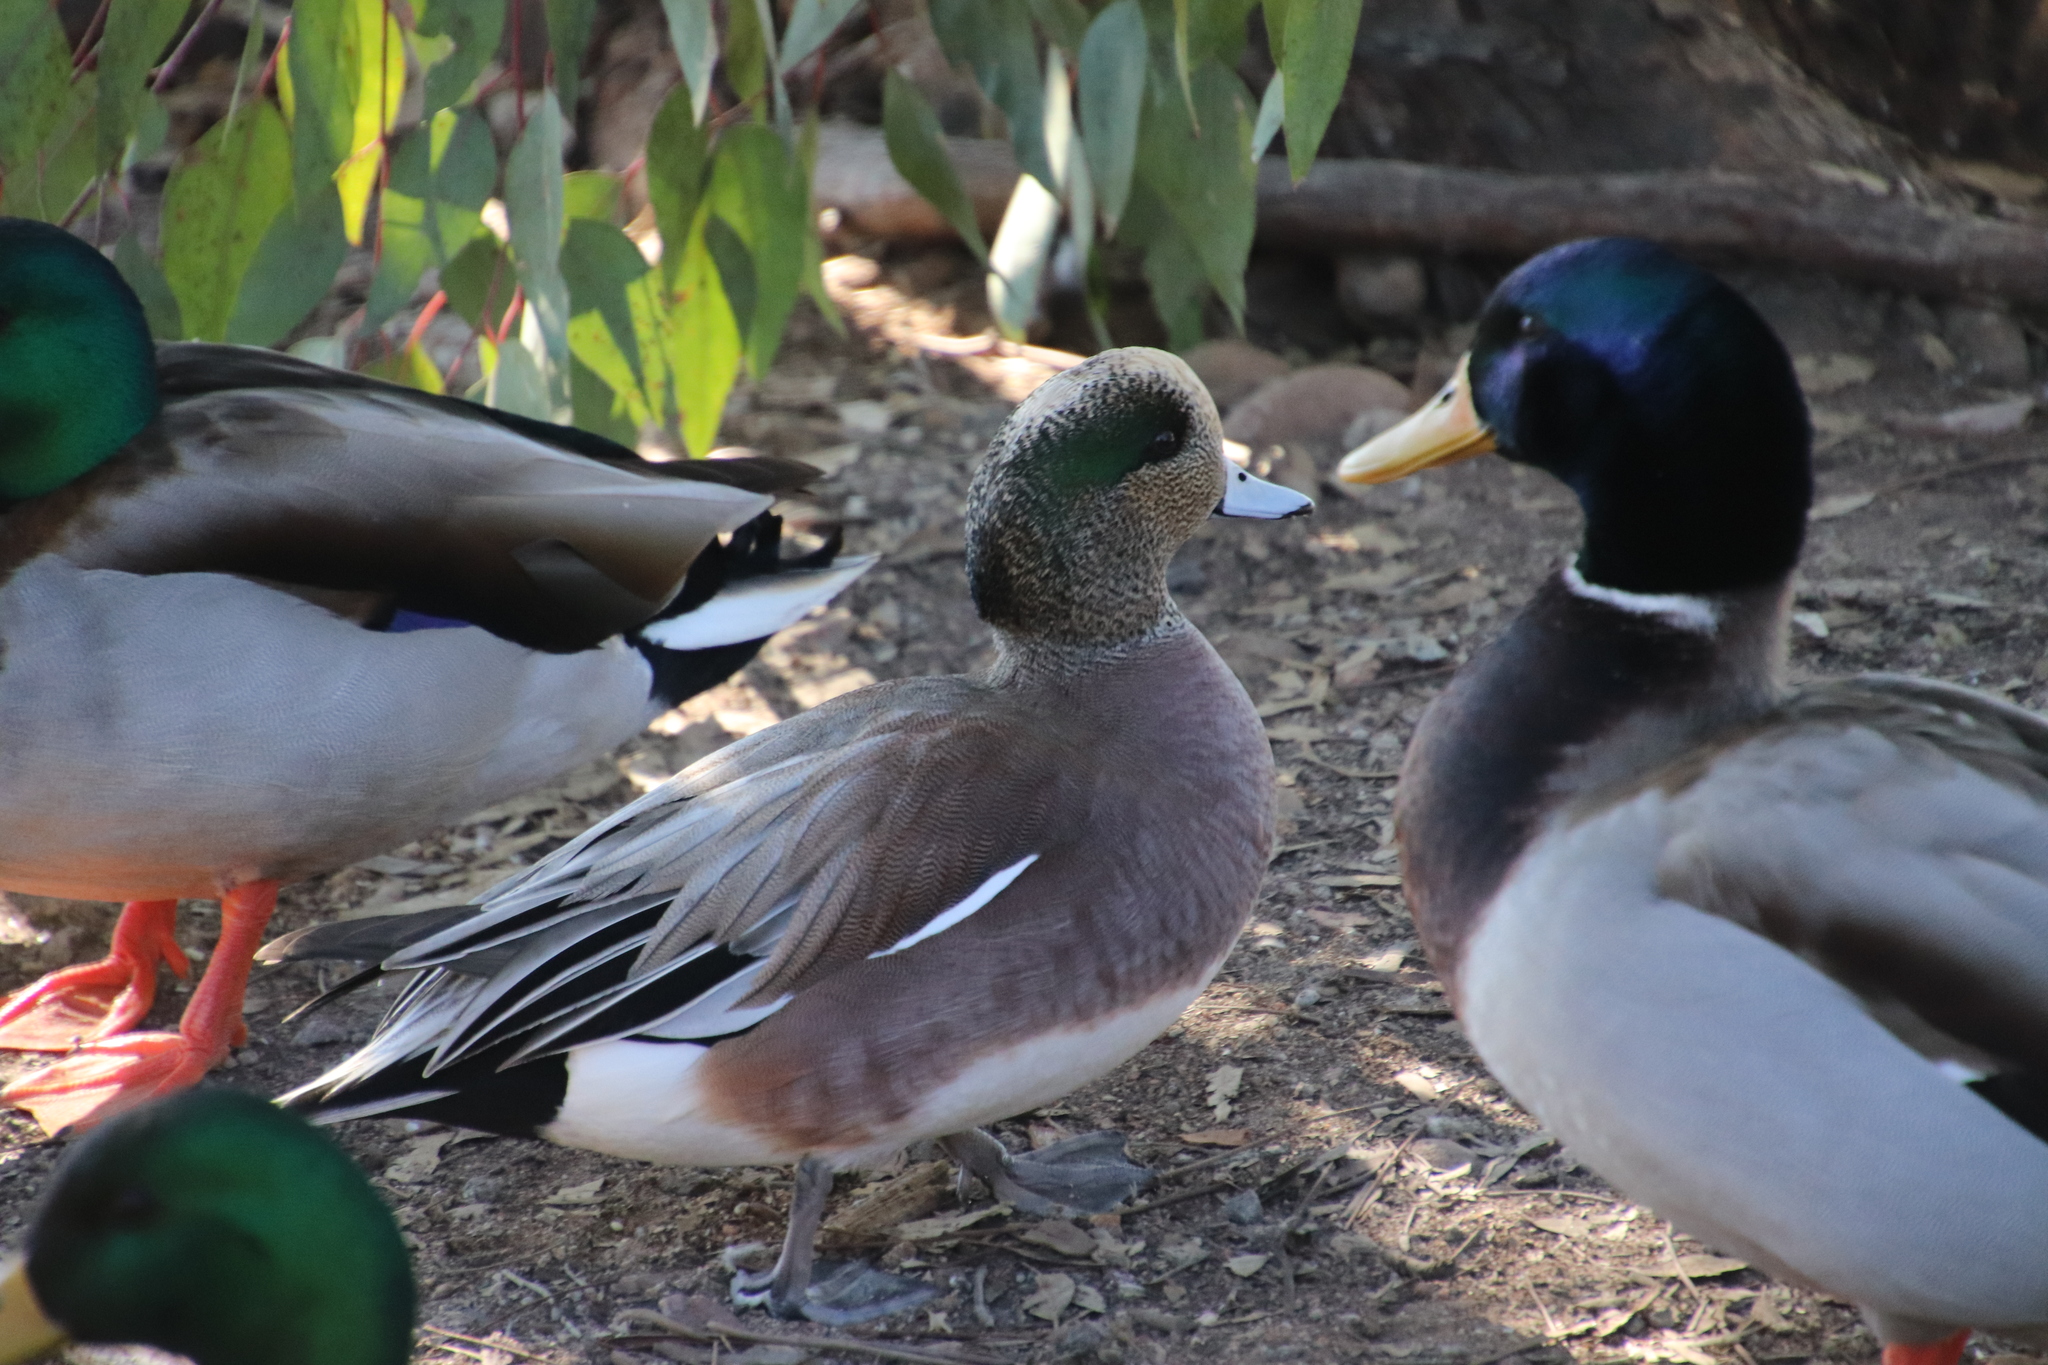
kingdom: Animalia
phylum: Chordata
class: Aves
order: Anseriformes
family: Anatidae
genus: Mareca
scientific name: Mareca americana
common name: American wigeon
